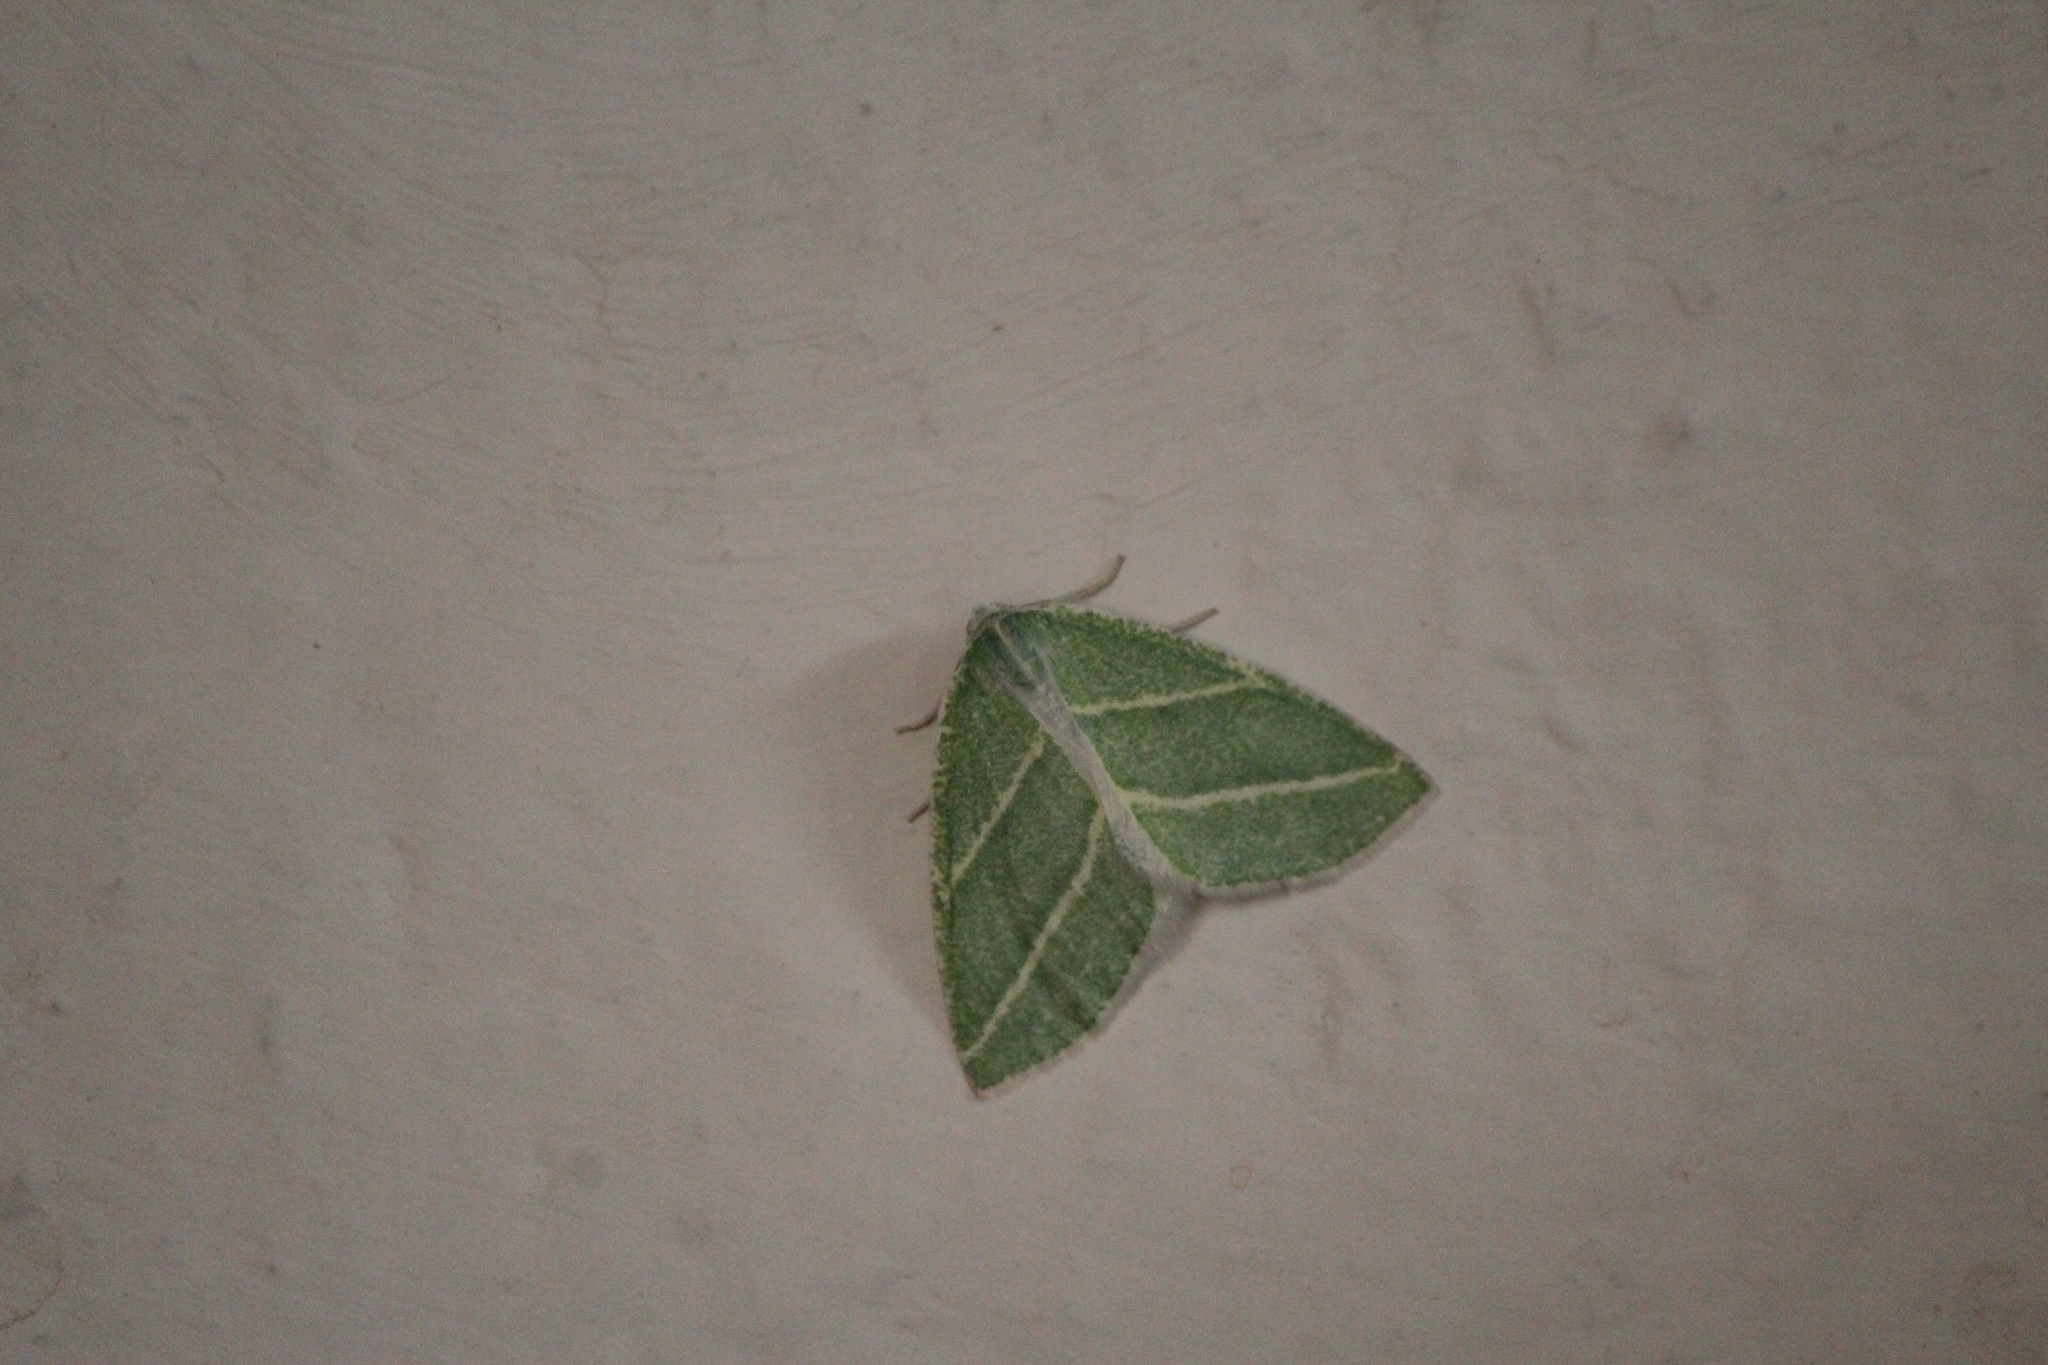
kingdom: Animalia
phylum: Arthropoda
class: Insecta
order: Lepidoptera
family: Geometridae
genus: Synchlora
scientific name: Synchlora bistriaria
